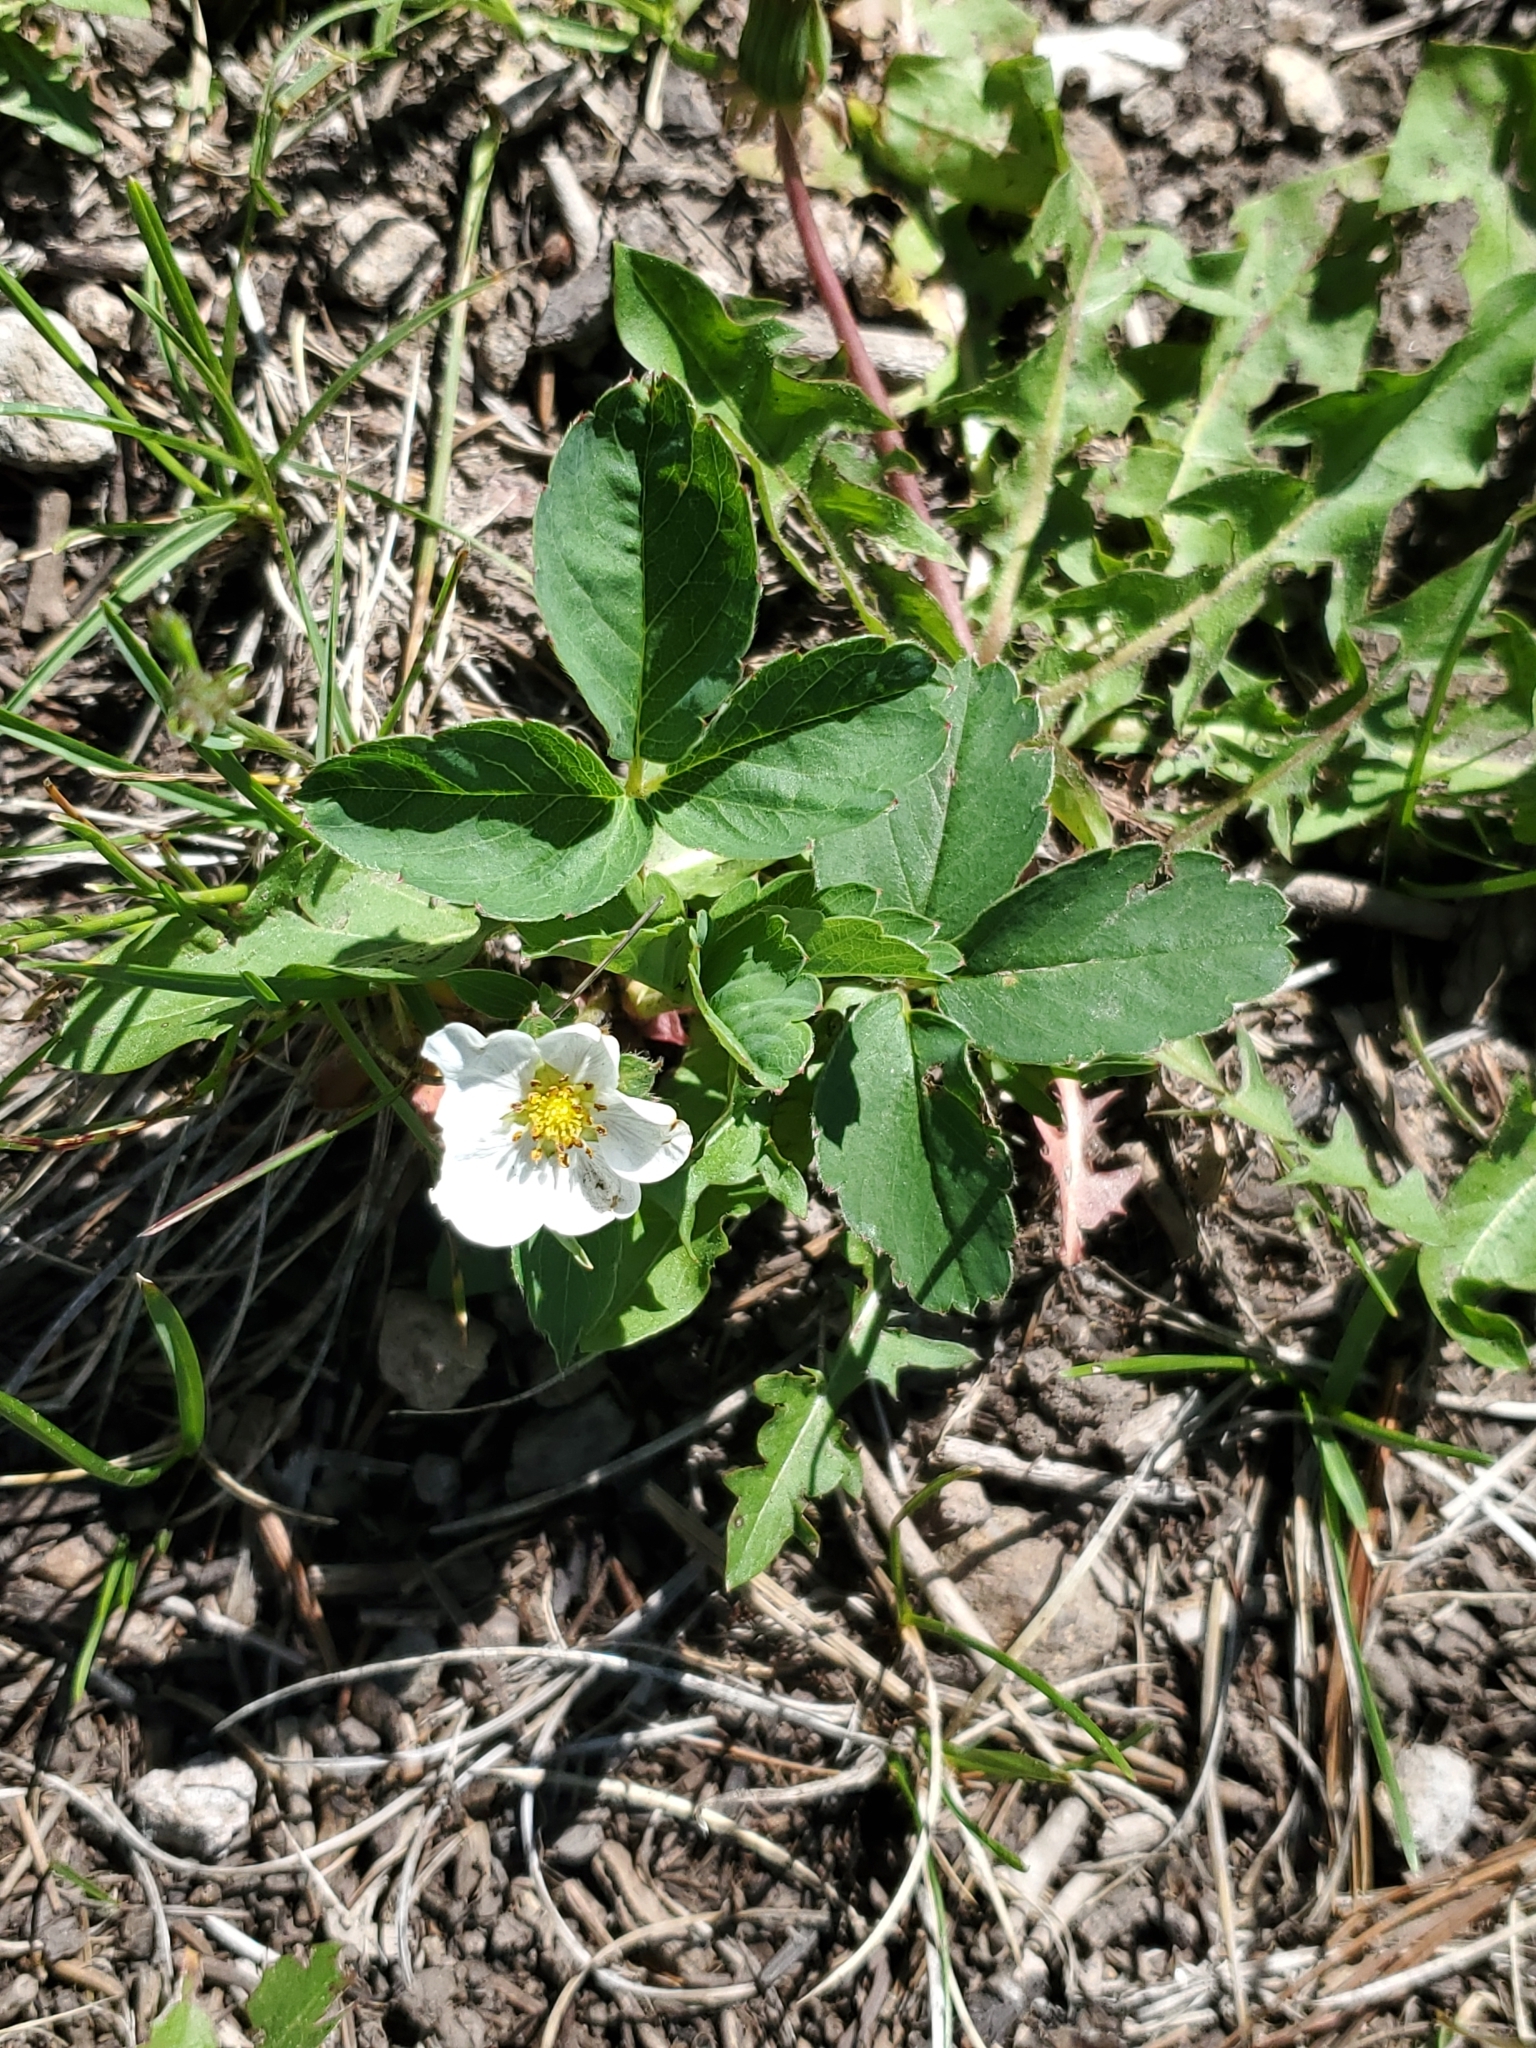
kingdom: Plantae
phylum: Tracheophyta
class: Magnoliopsida
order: Rosales
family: Rosaceae
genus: Fragaria
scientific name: Fragaria virginiana
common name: Thickleaved wild strawberry
